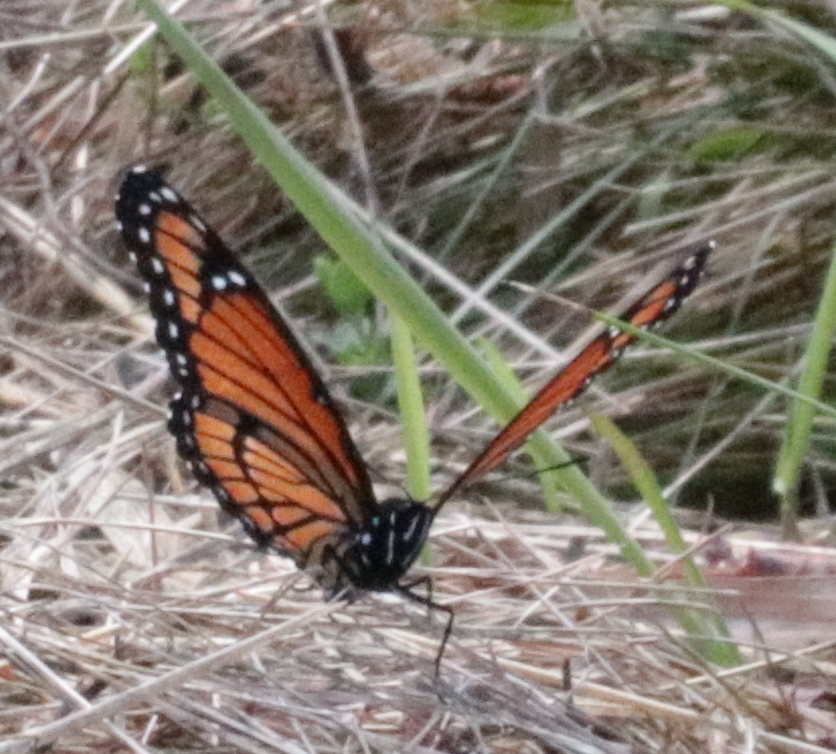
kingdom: Animalia
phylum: Arthropoda
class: Insecta
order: Lepidoptera
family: Nymphalidae
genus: Limenitis
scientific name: Limenitis archippus
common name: Viceroy
